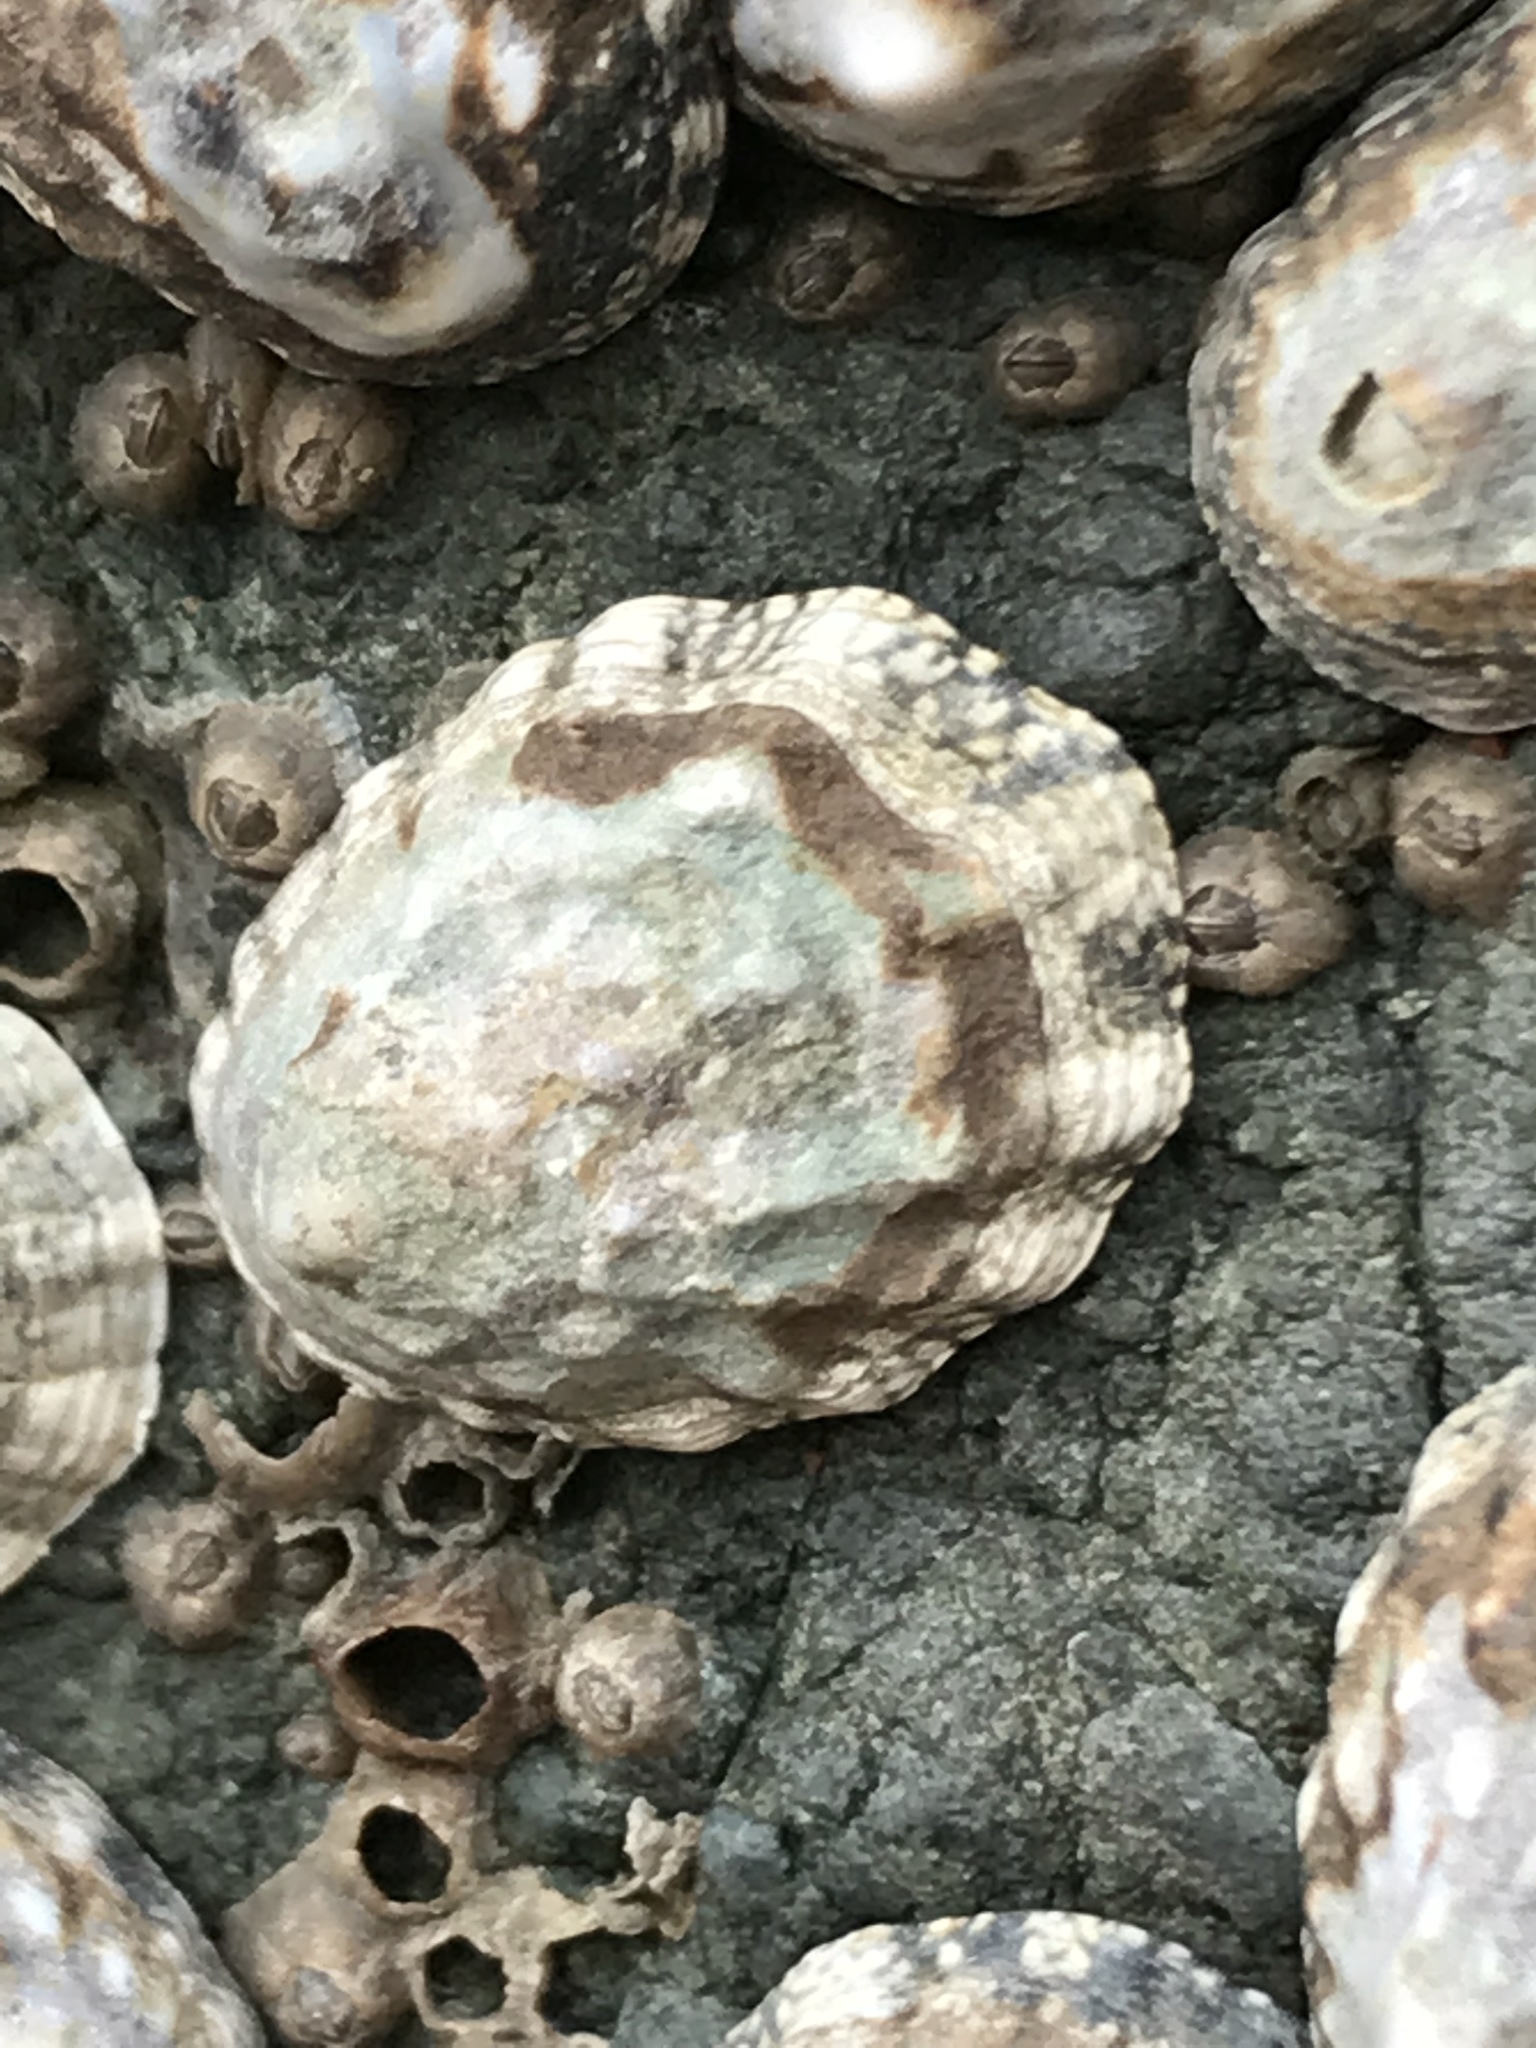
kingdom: Animalia
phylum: Mollusca
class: Gastropoda
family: Lottiidae
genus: Lottia
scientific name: Lottia digitalis
